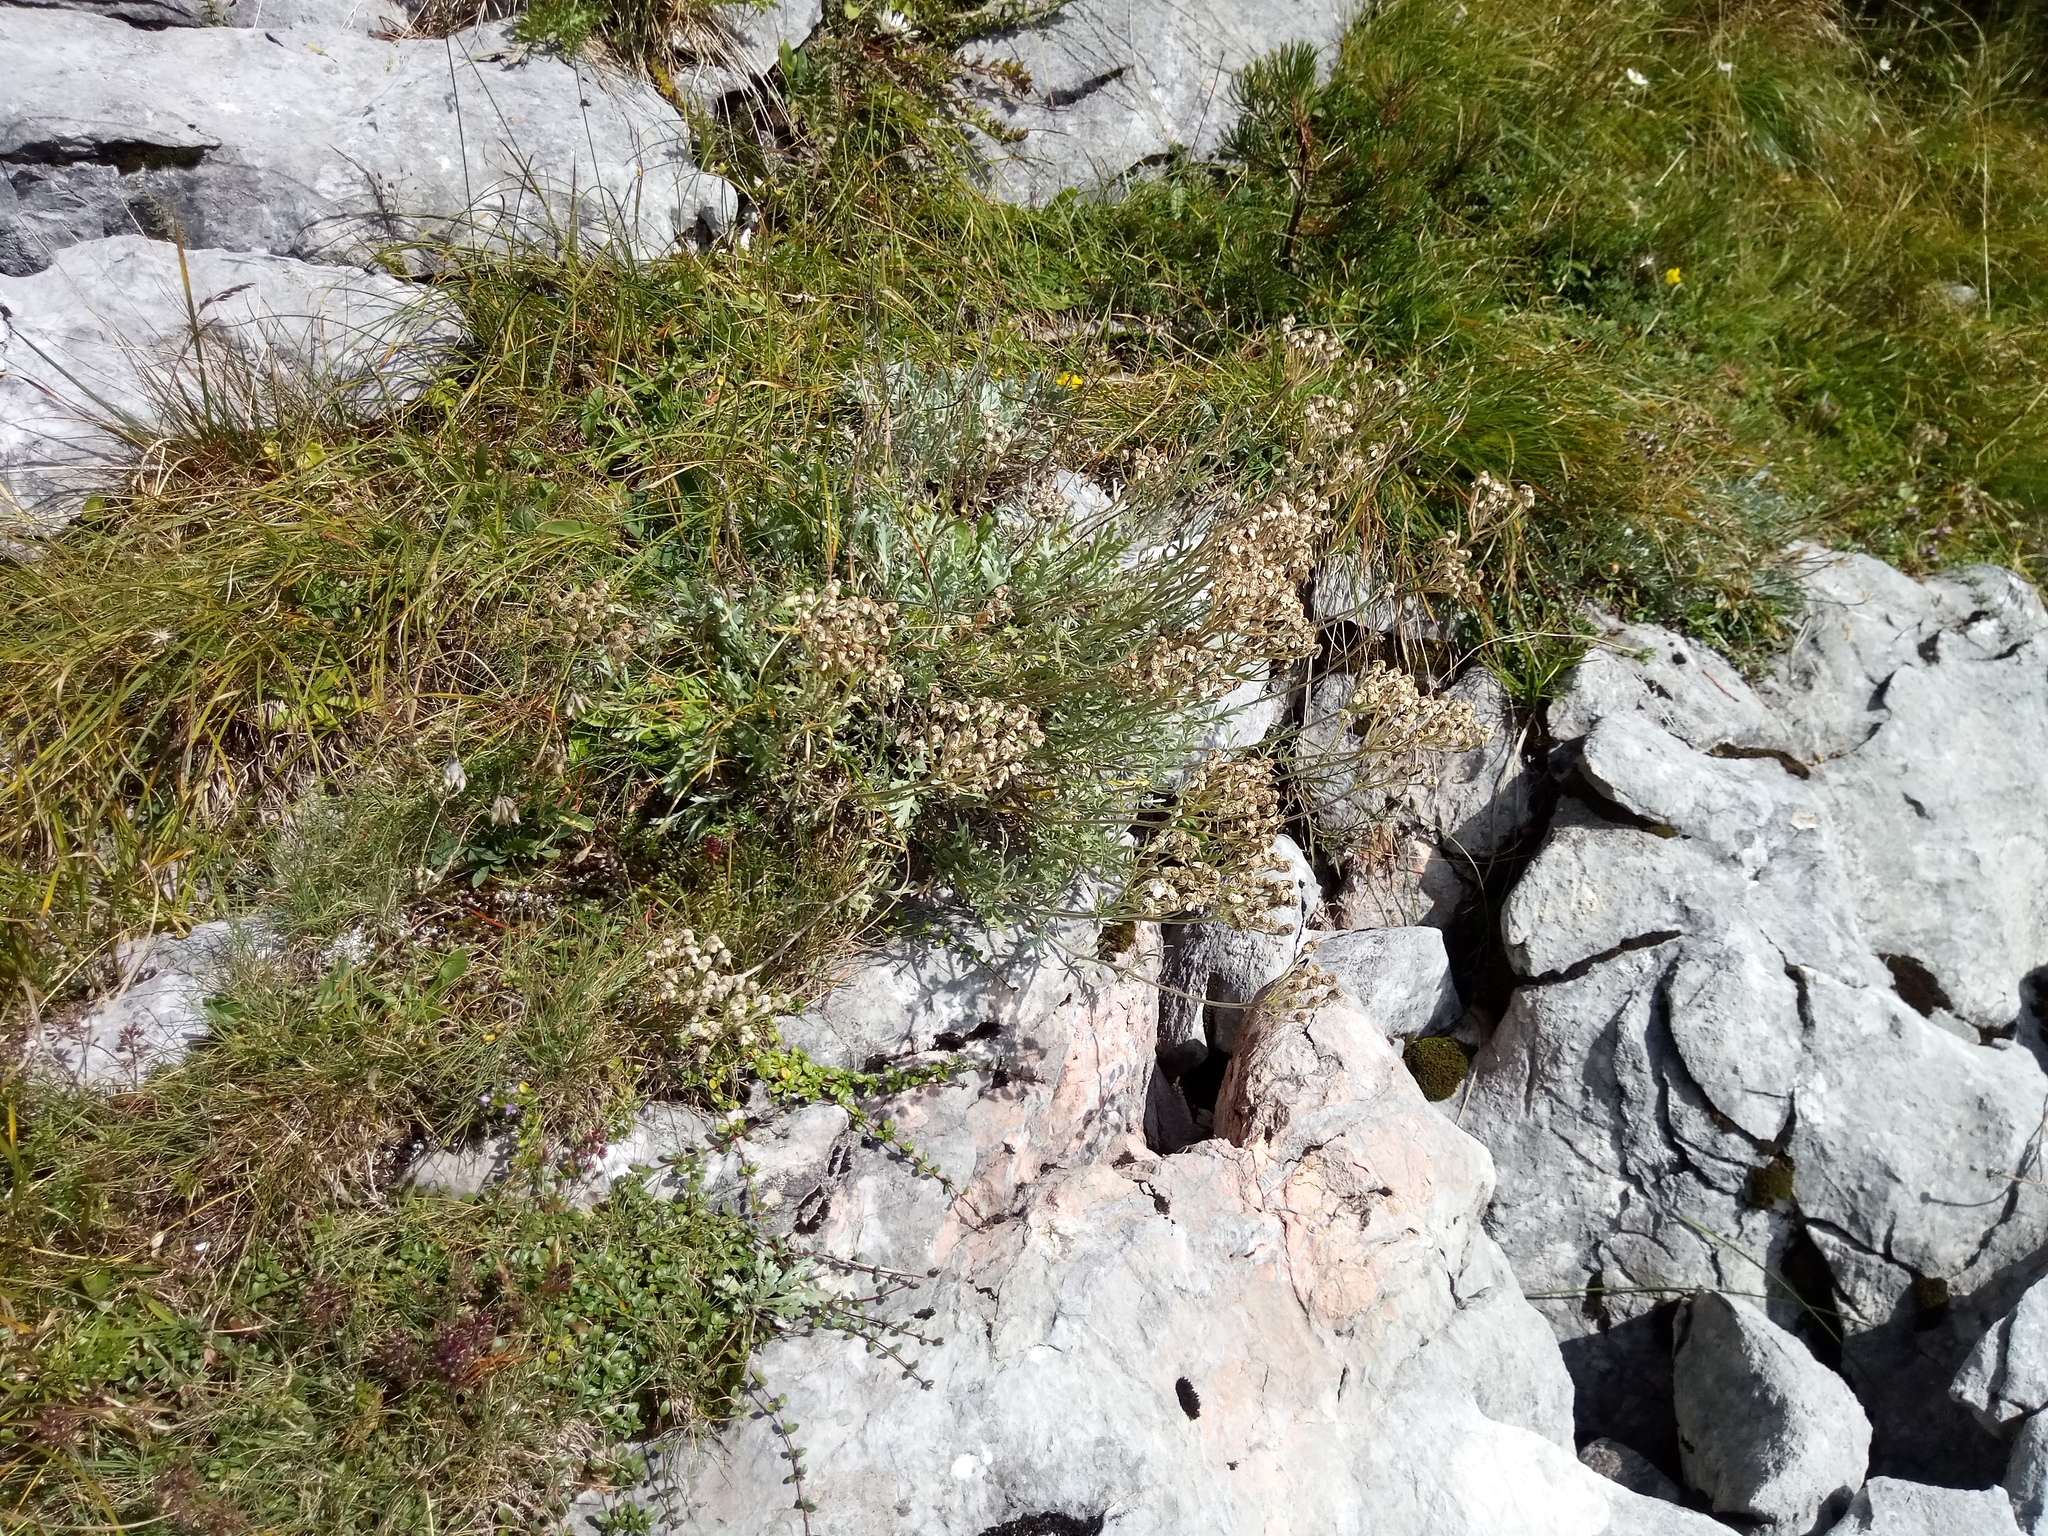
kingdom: Plantae
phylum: Tracheophyta
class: Magnoliopsida
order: Asterales
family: Asteraceae
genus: Achillea
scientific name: Achillea clavennae
